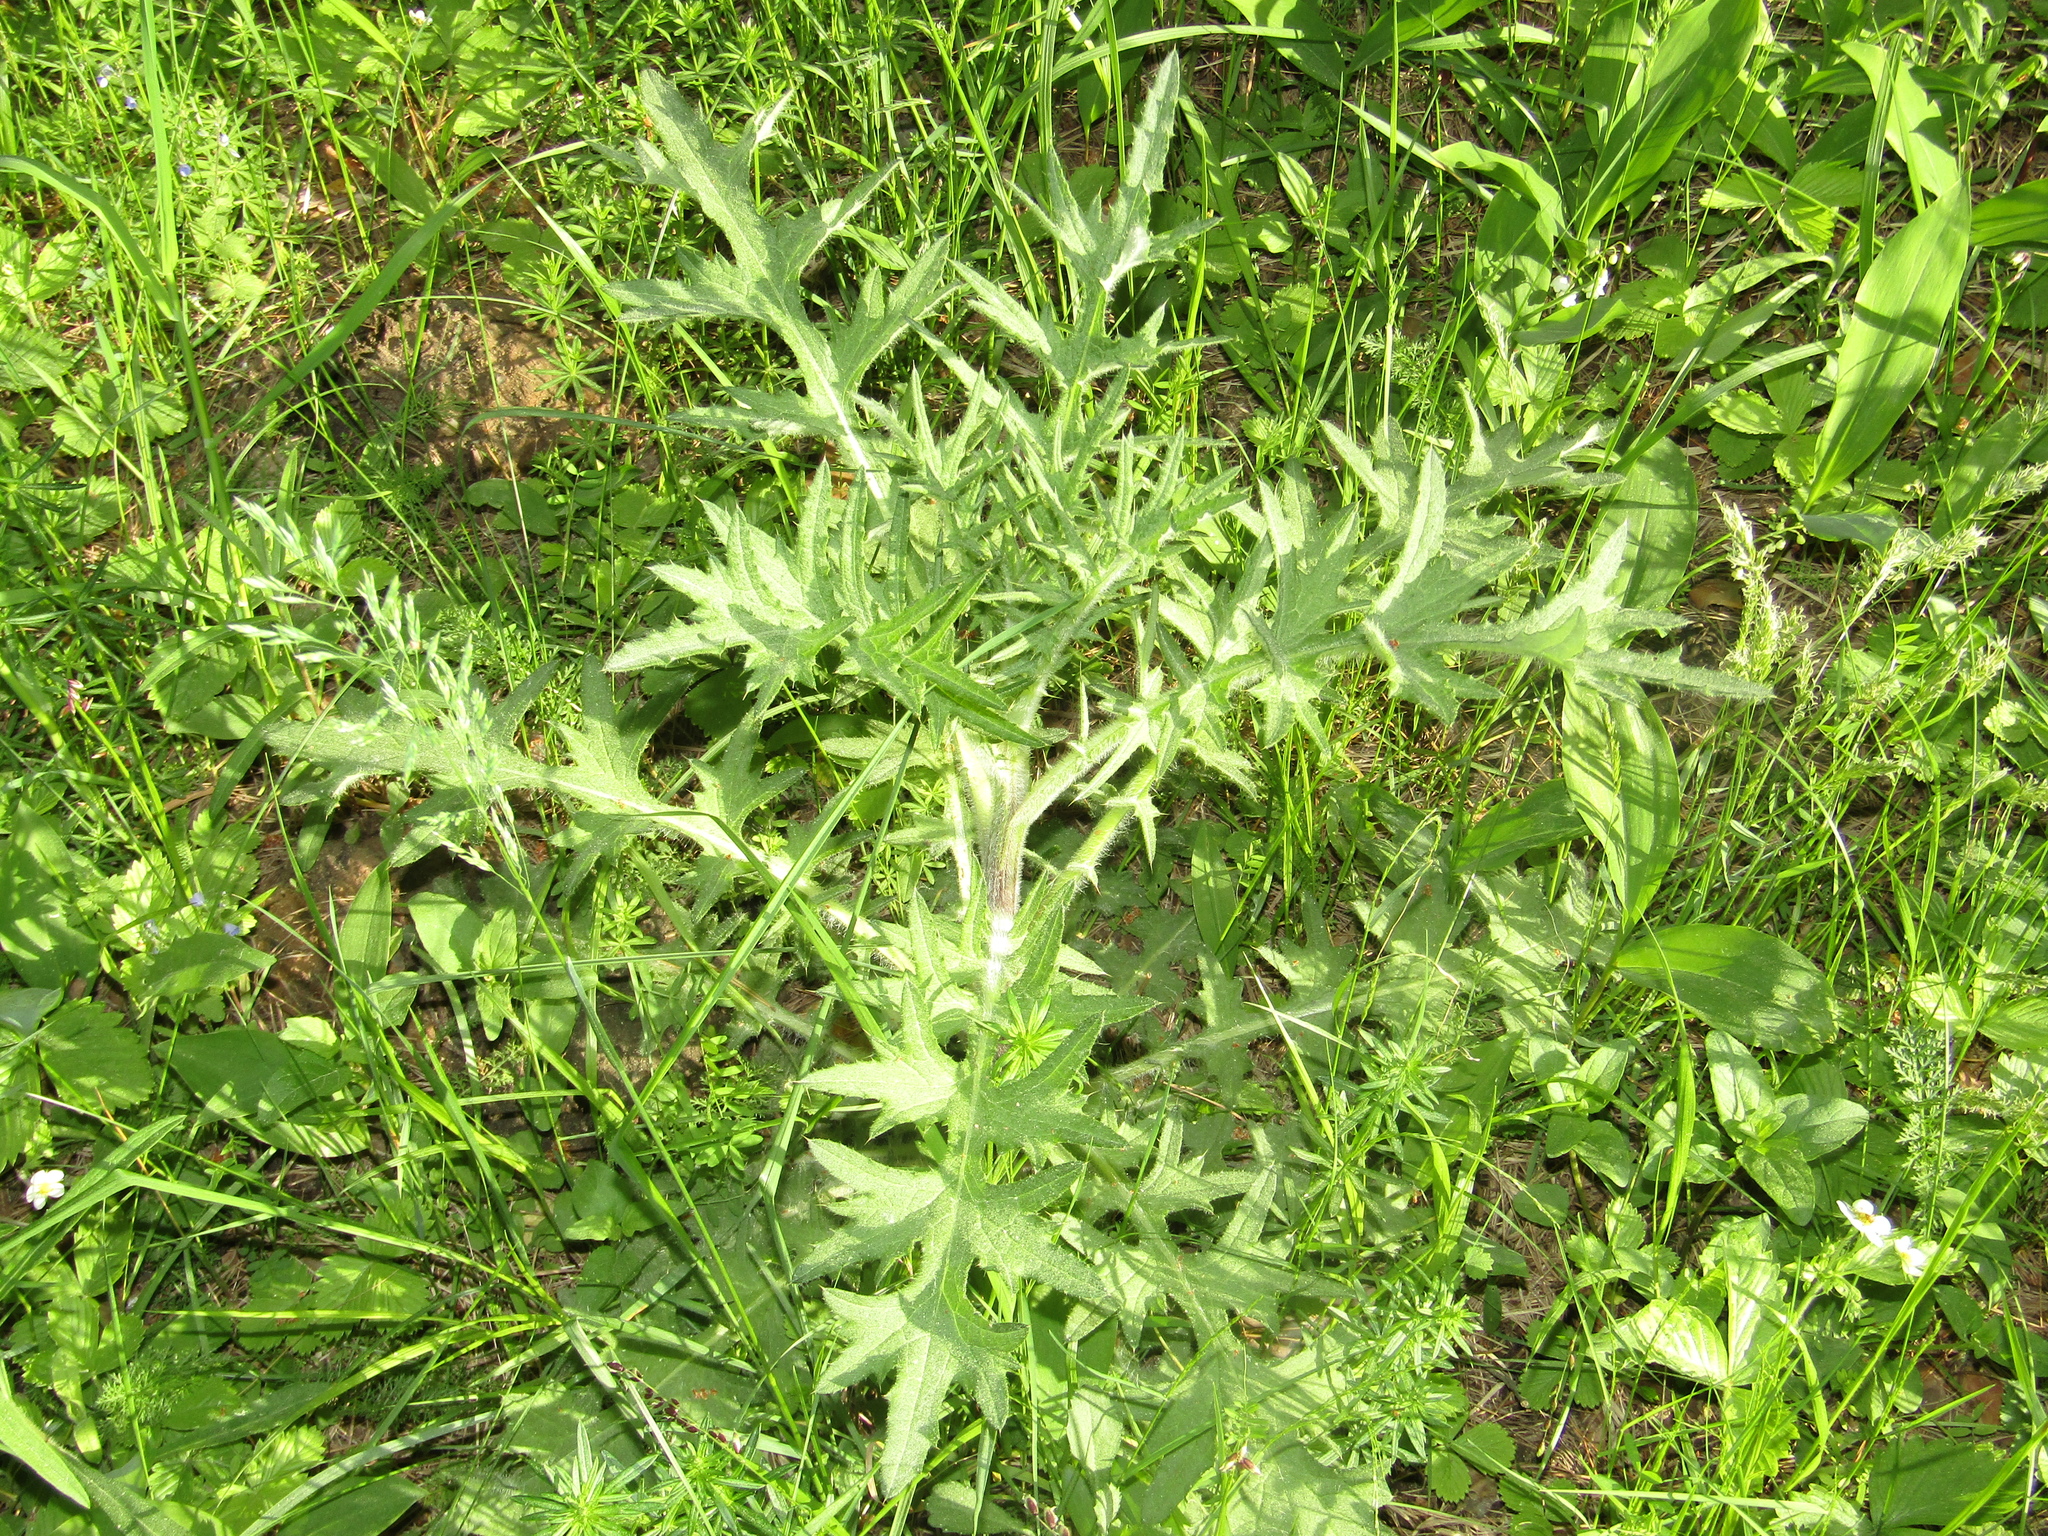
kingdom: Plantae
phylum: Tracheophyta
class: Magnoliopsida
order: Asterales
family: Asteraceae
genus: Cirsium
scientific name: Cirsium vulgare
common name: Bull thistle
